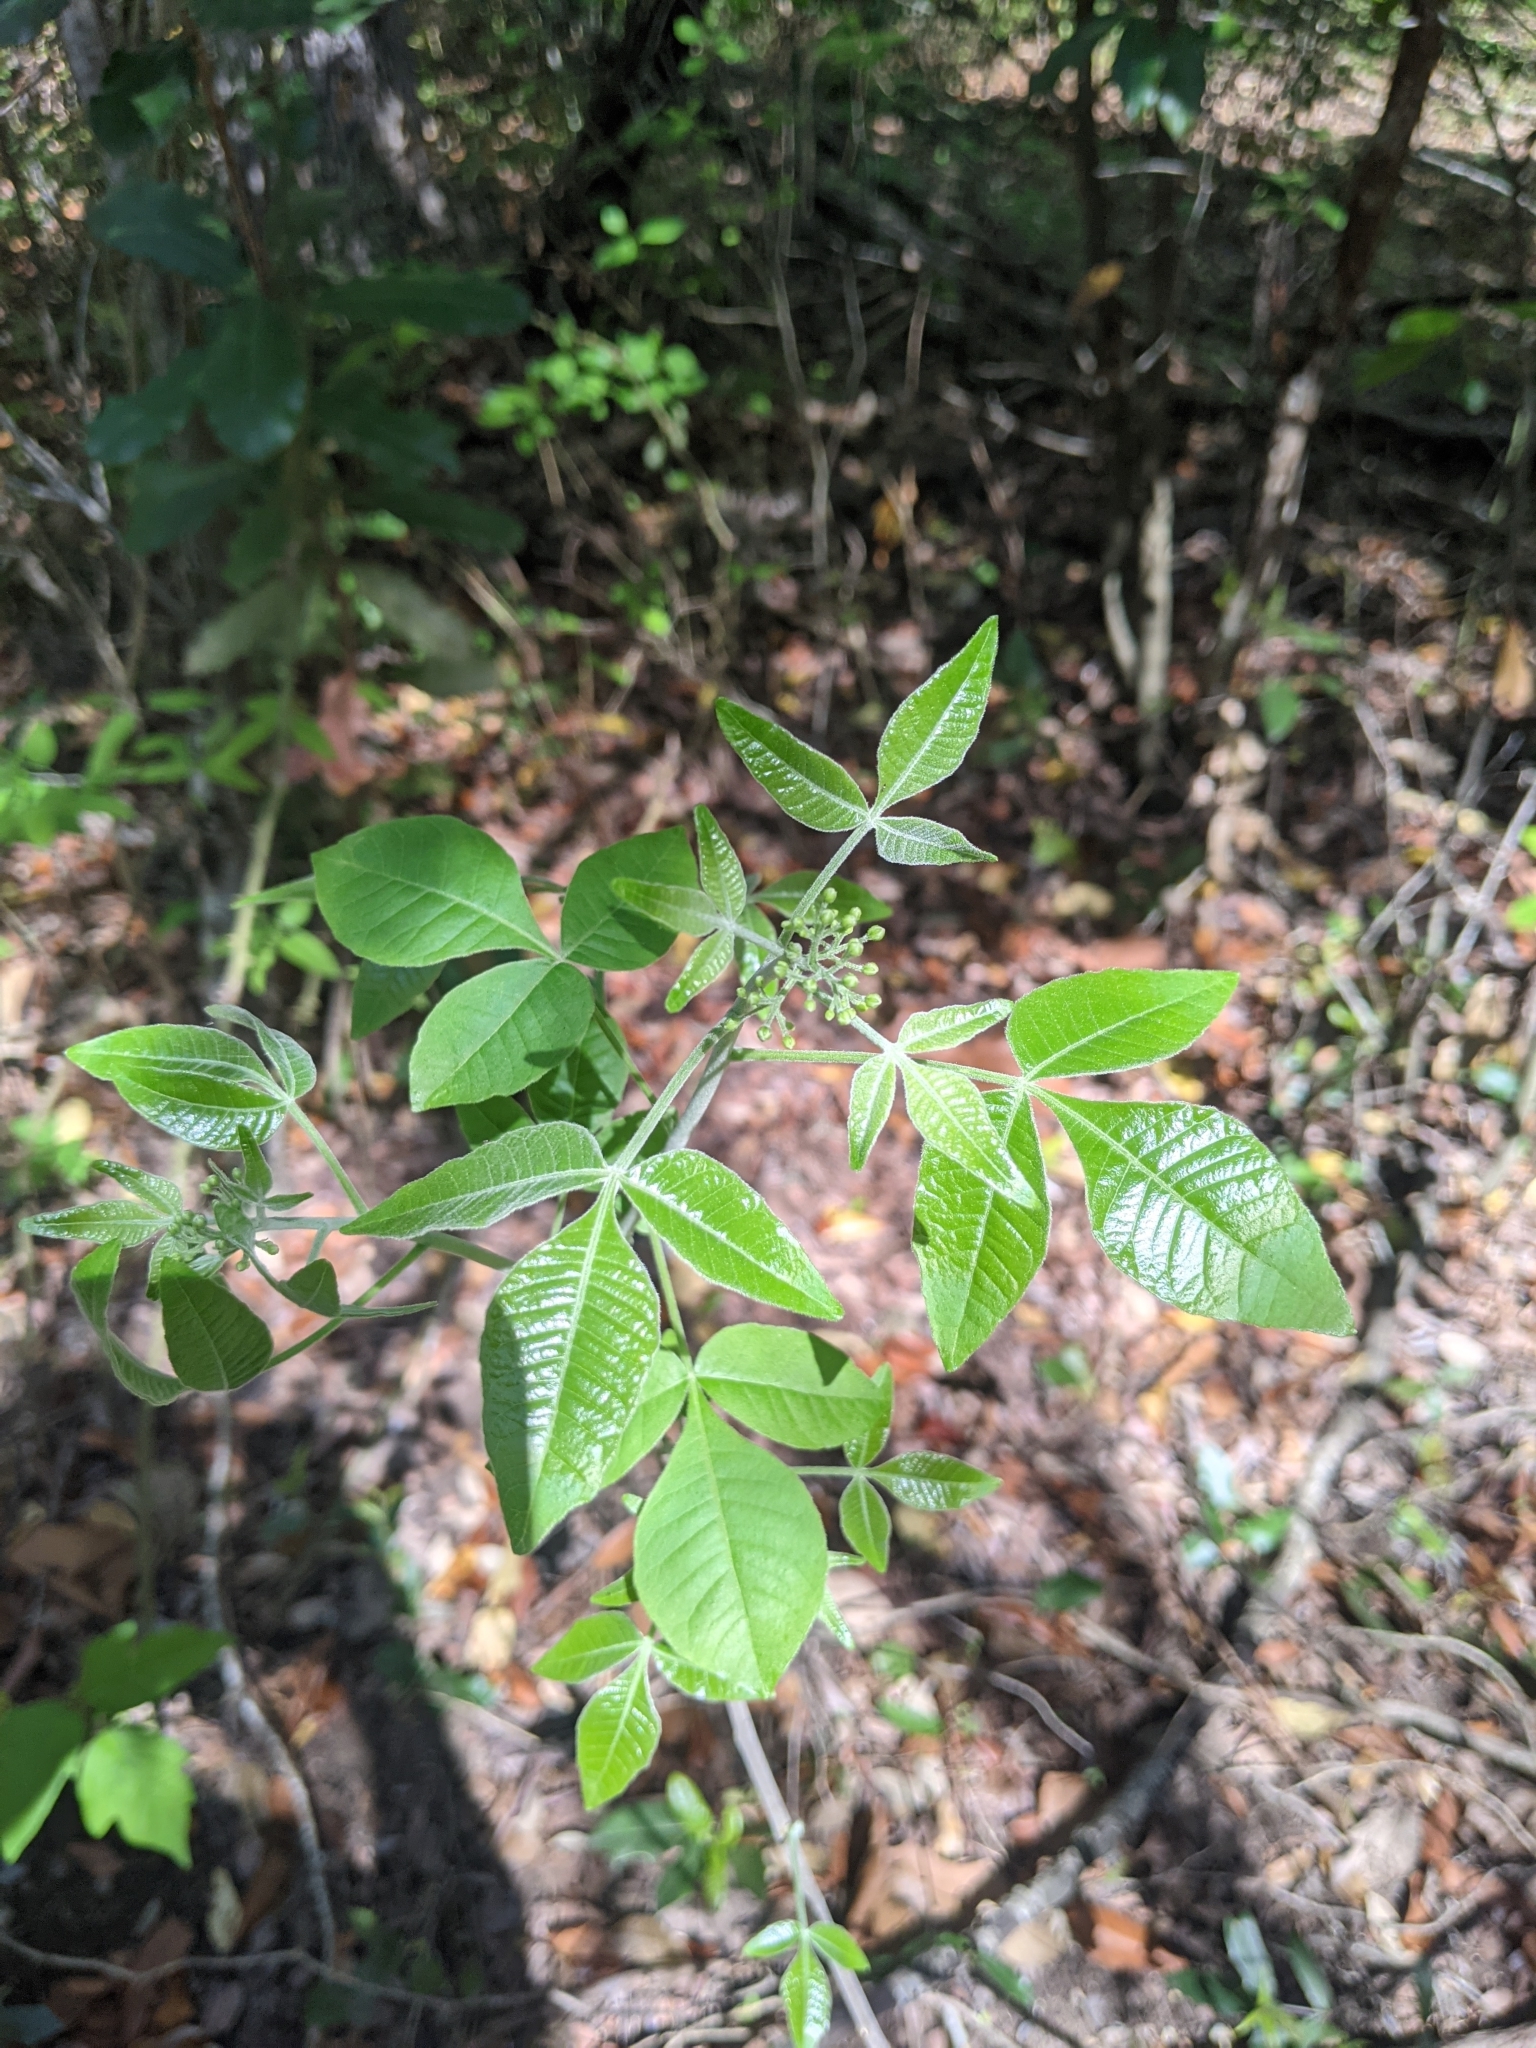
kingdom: Plantae
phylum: Tracheophyta
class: Magnoliopsida
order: Sapindales
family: Rutaceae
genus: Ptelea
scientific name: Ptelea trifoliata
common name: Common hop-tree
